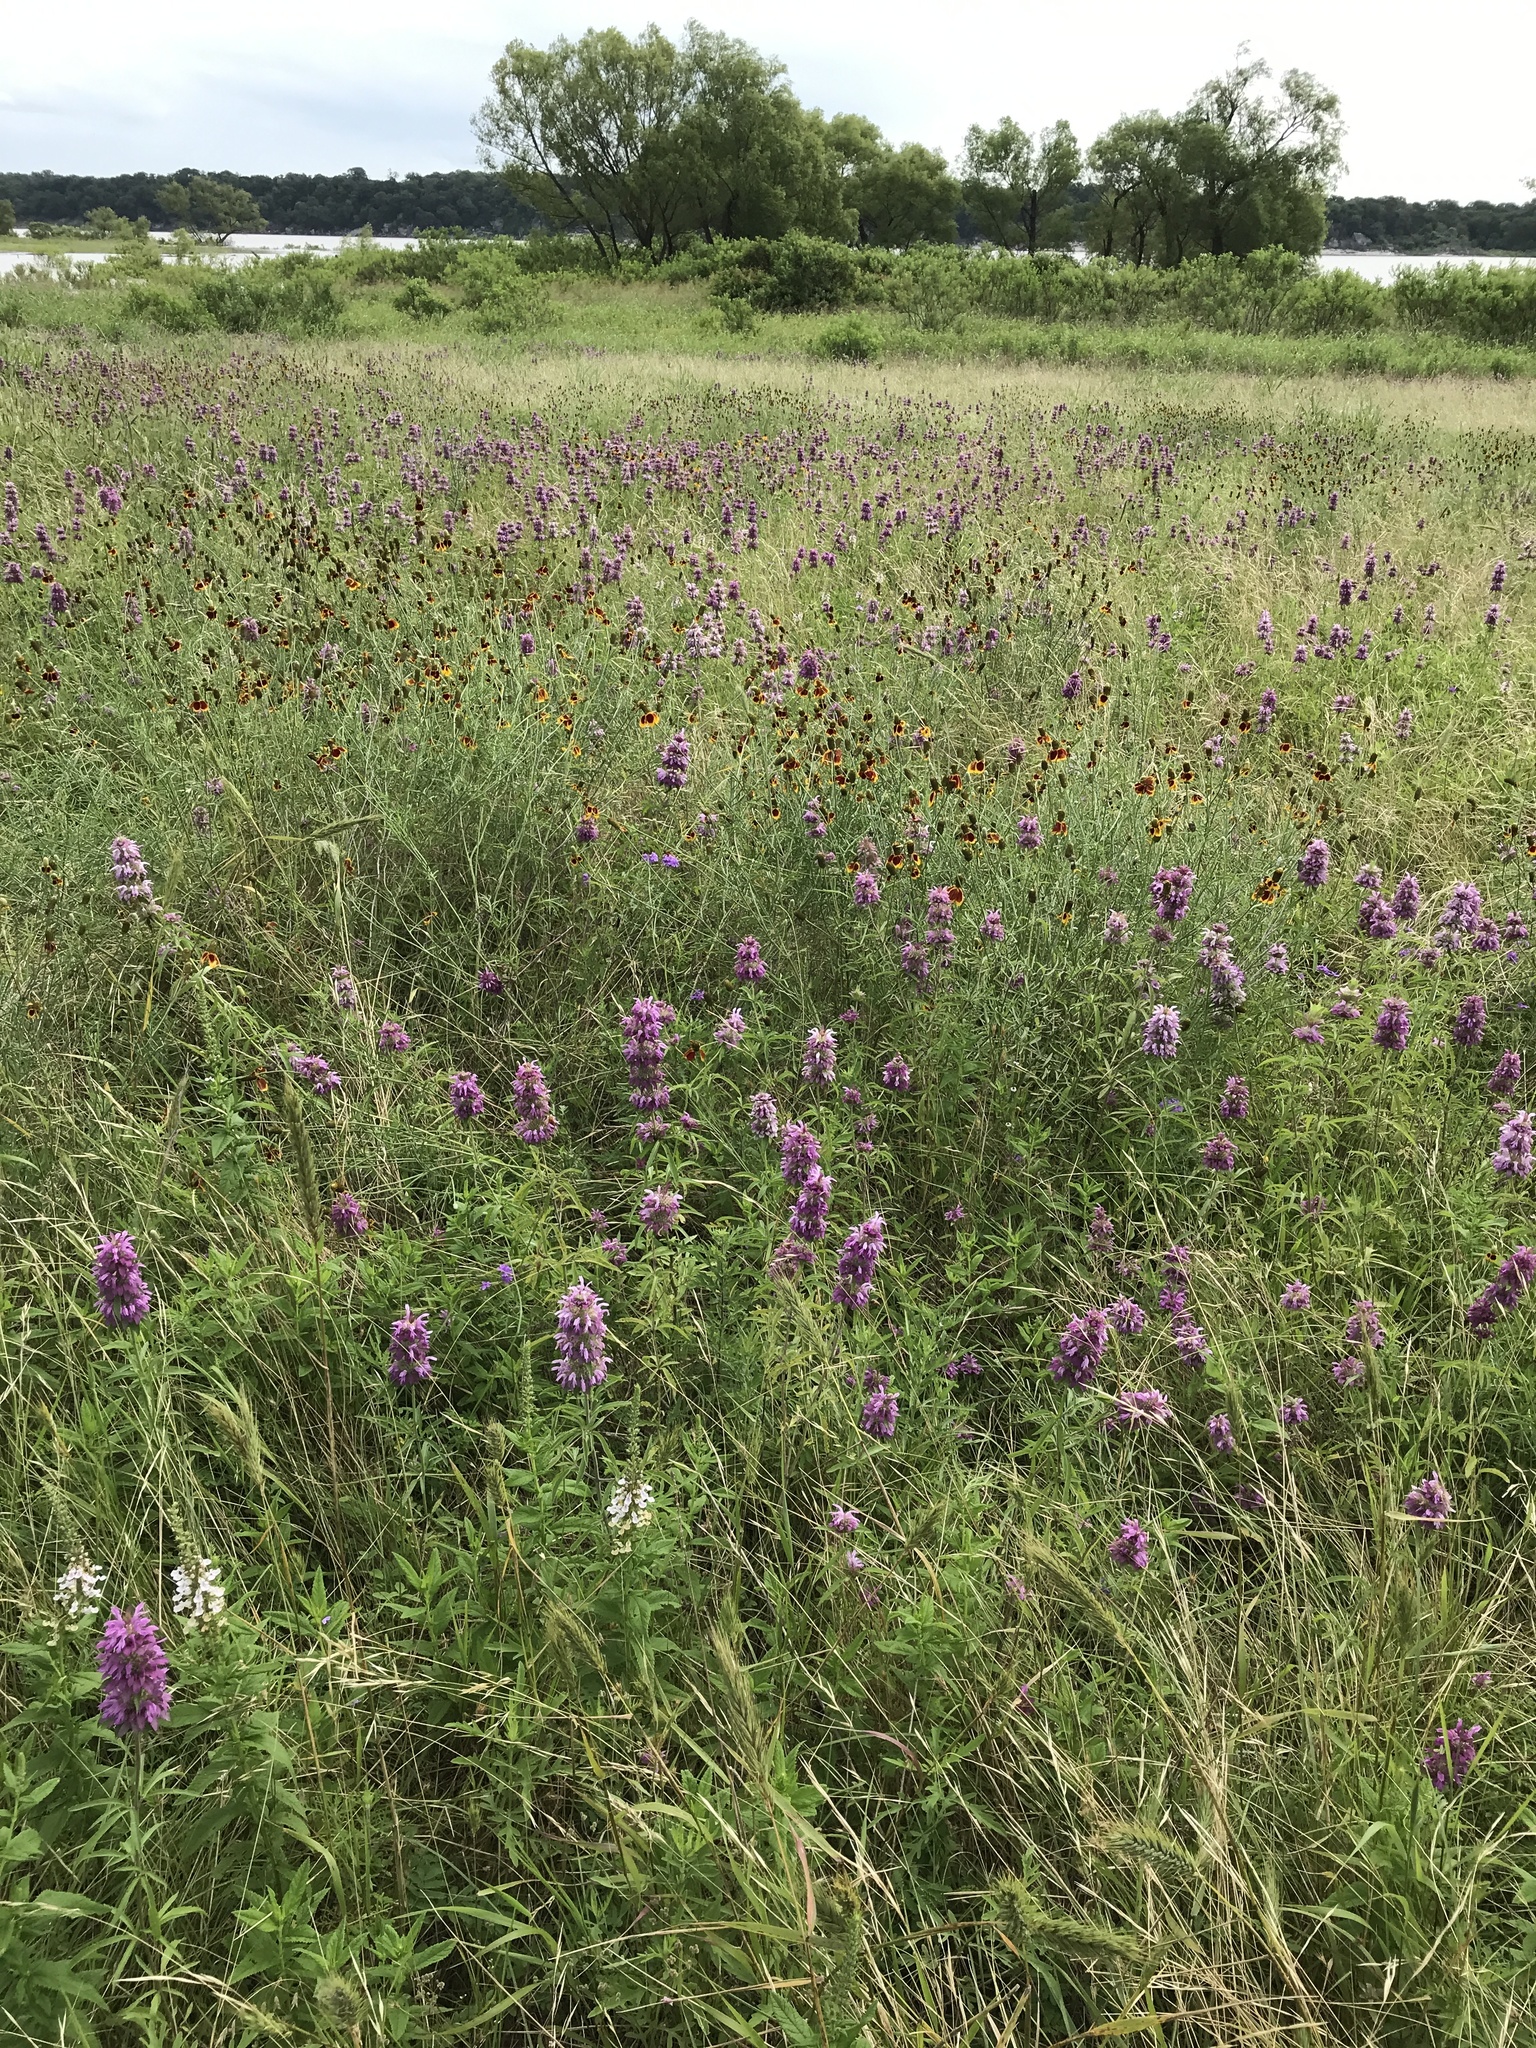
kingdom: Plantae
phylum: Tracheophyta
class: Magnoliopsida
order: Lamiales
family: Lamiaceae
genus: Monarda
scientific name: Monarda citriodora
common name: Lemon beebalm
